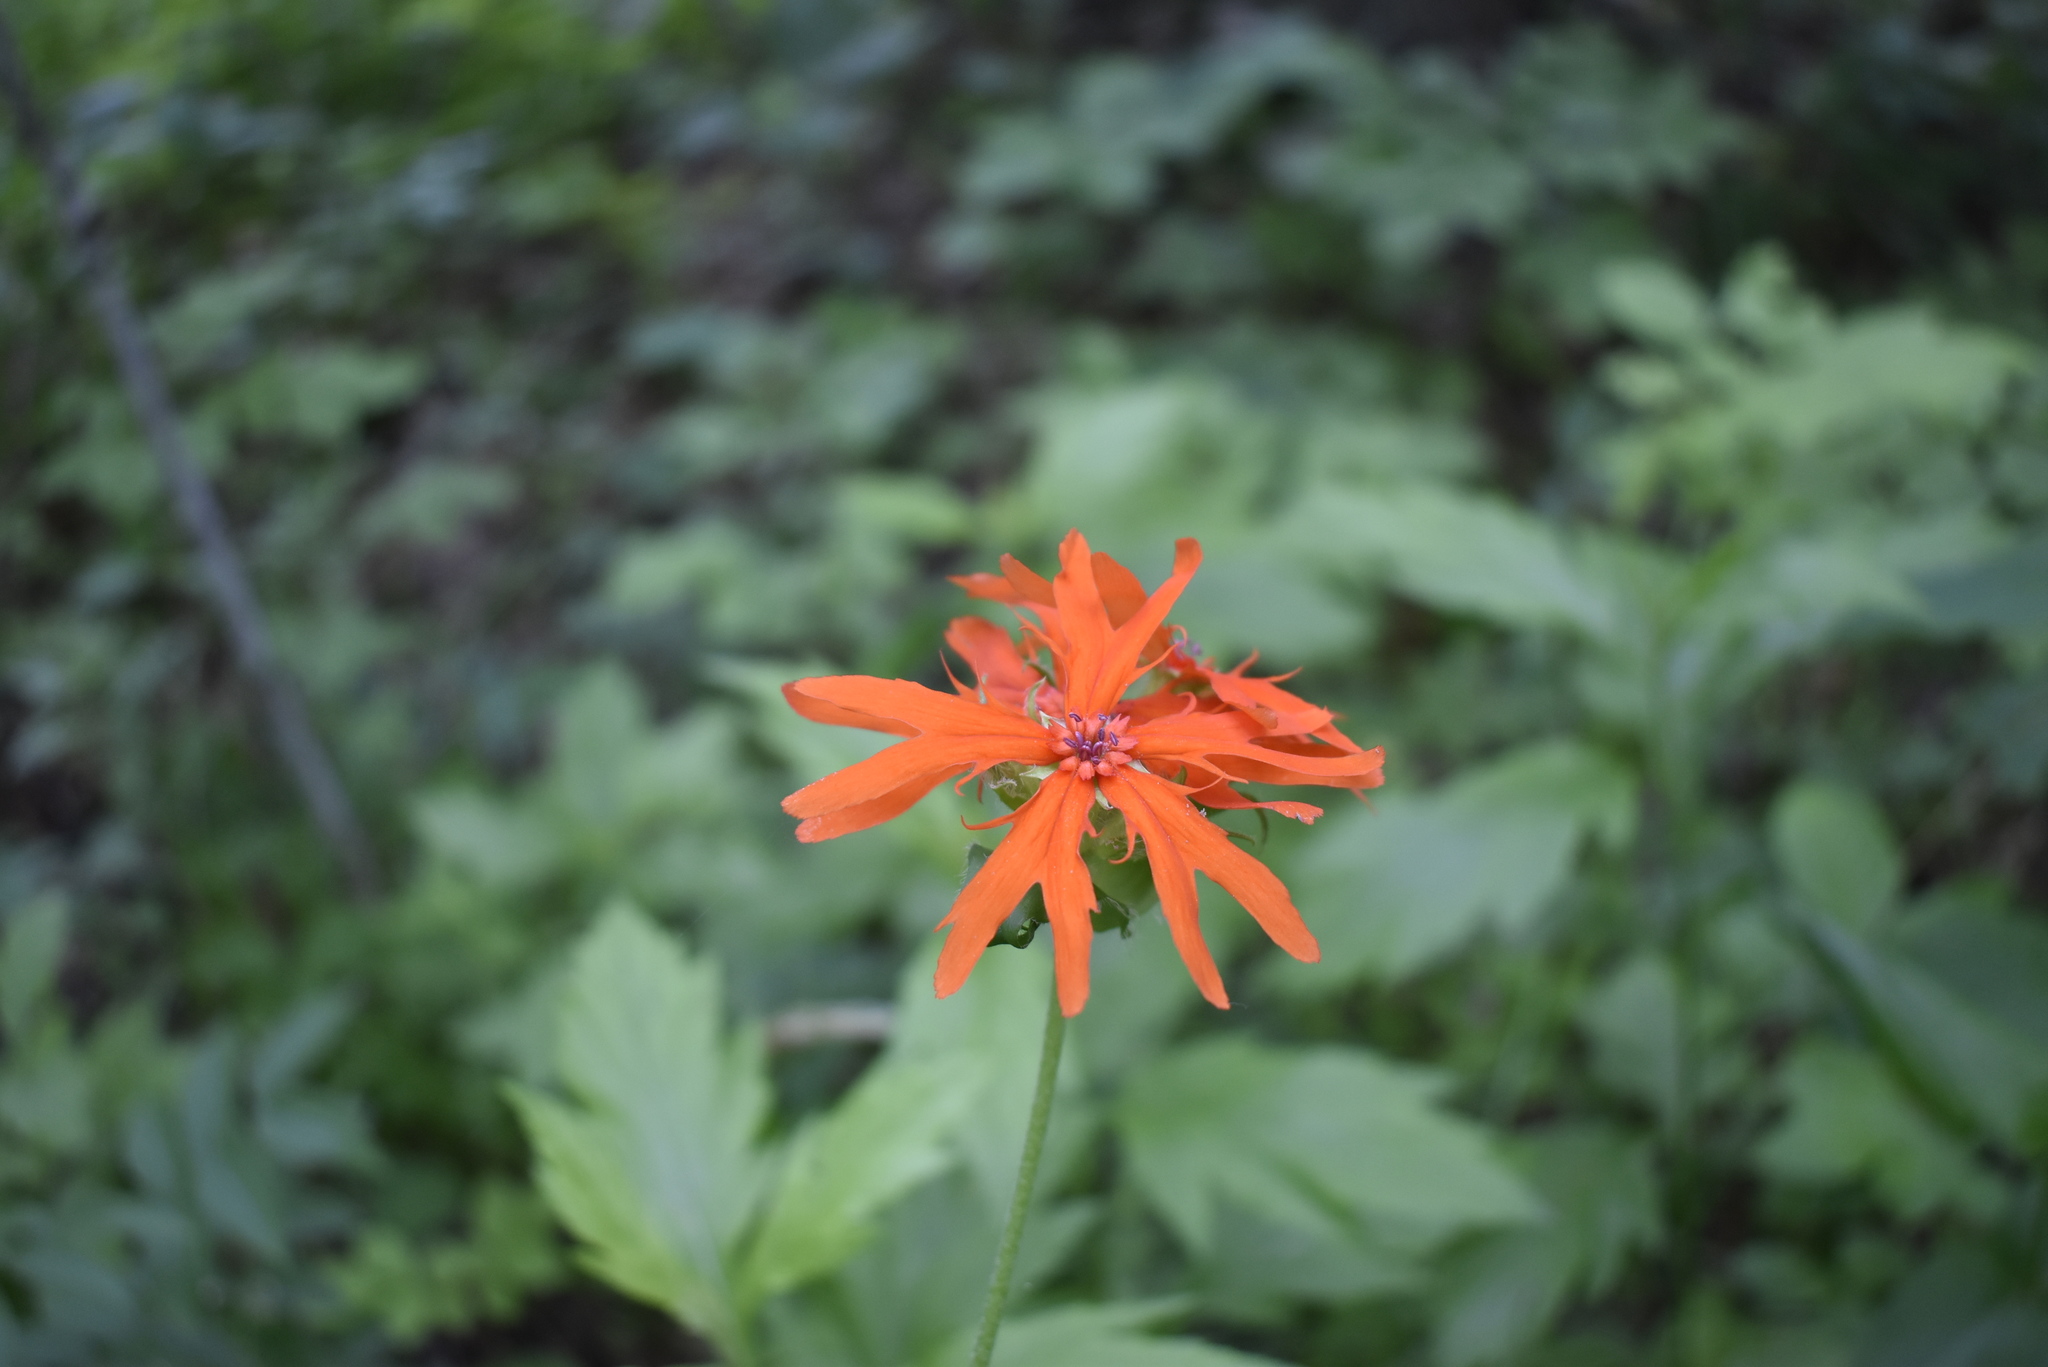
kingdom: Plantae
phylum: Tracheophyta
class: Magnoliopsida
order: Caryophyllales
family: Caryophyllaceae
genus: Silene
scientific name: Silene banksia
